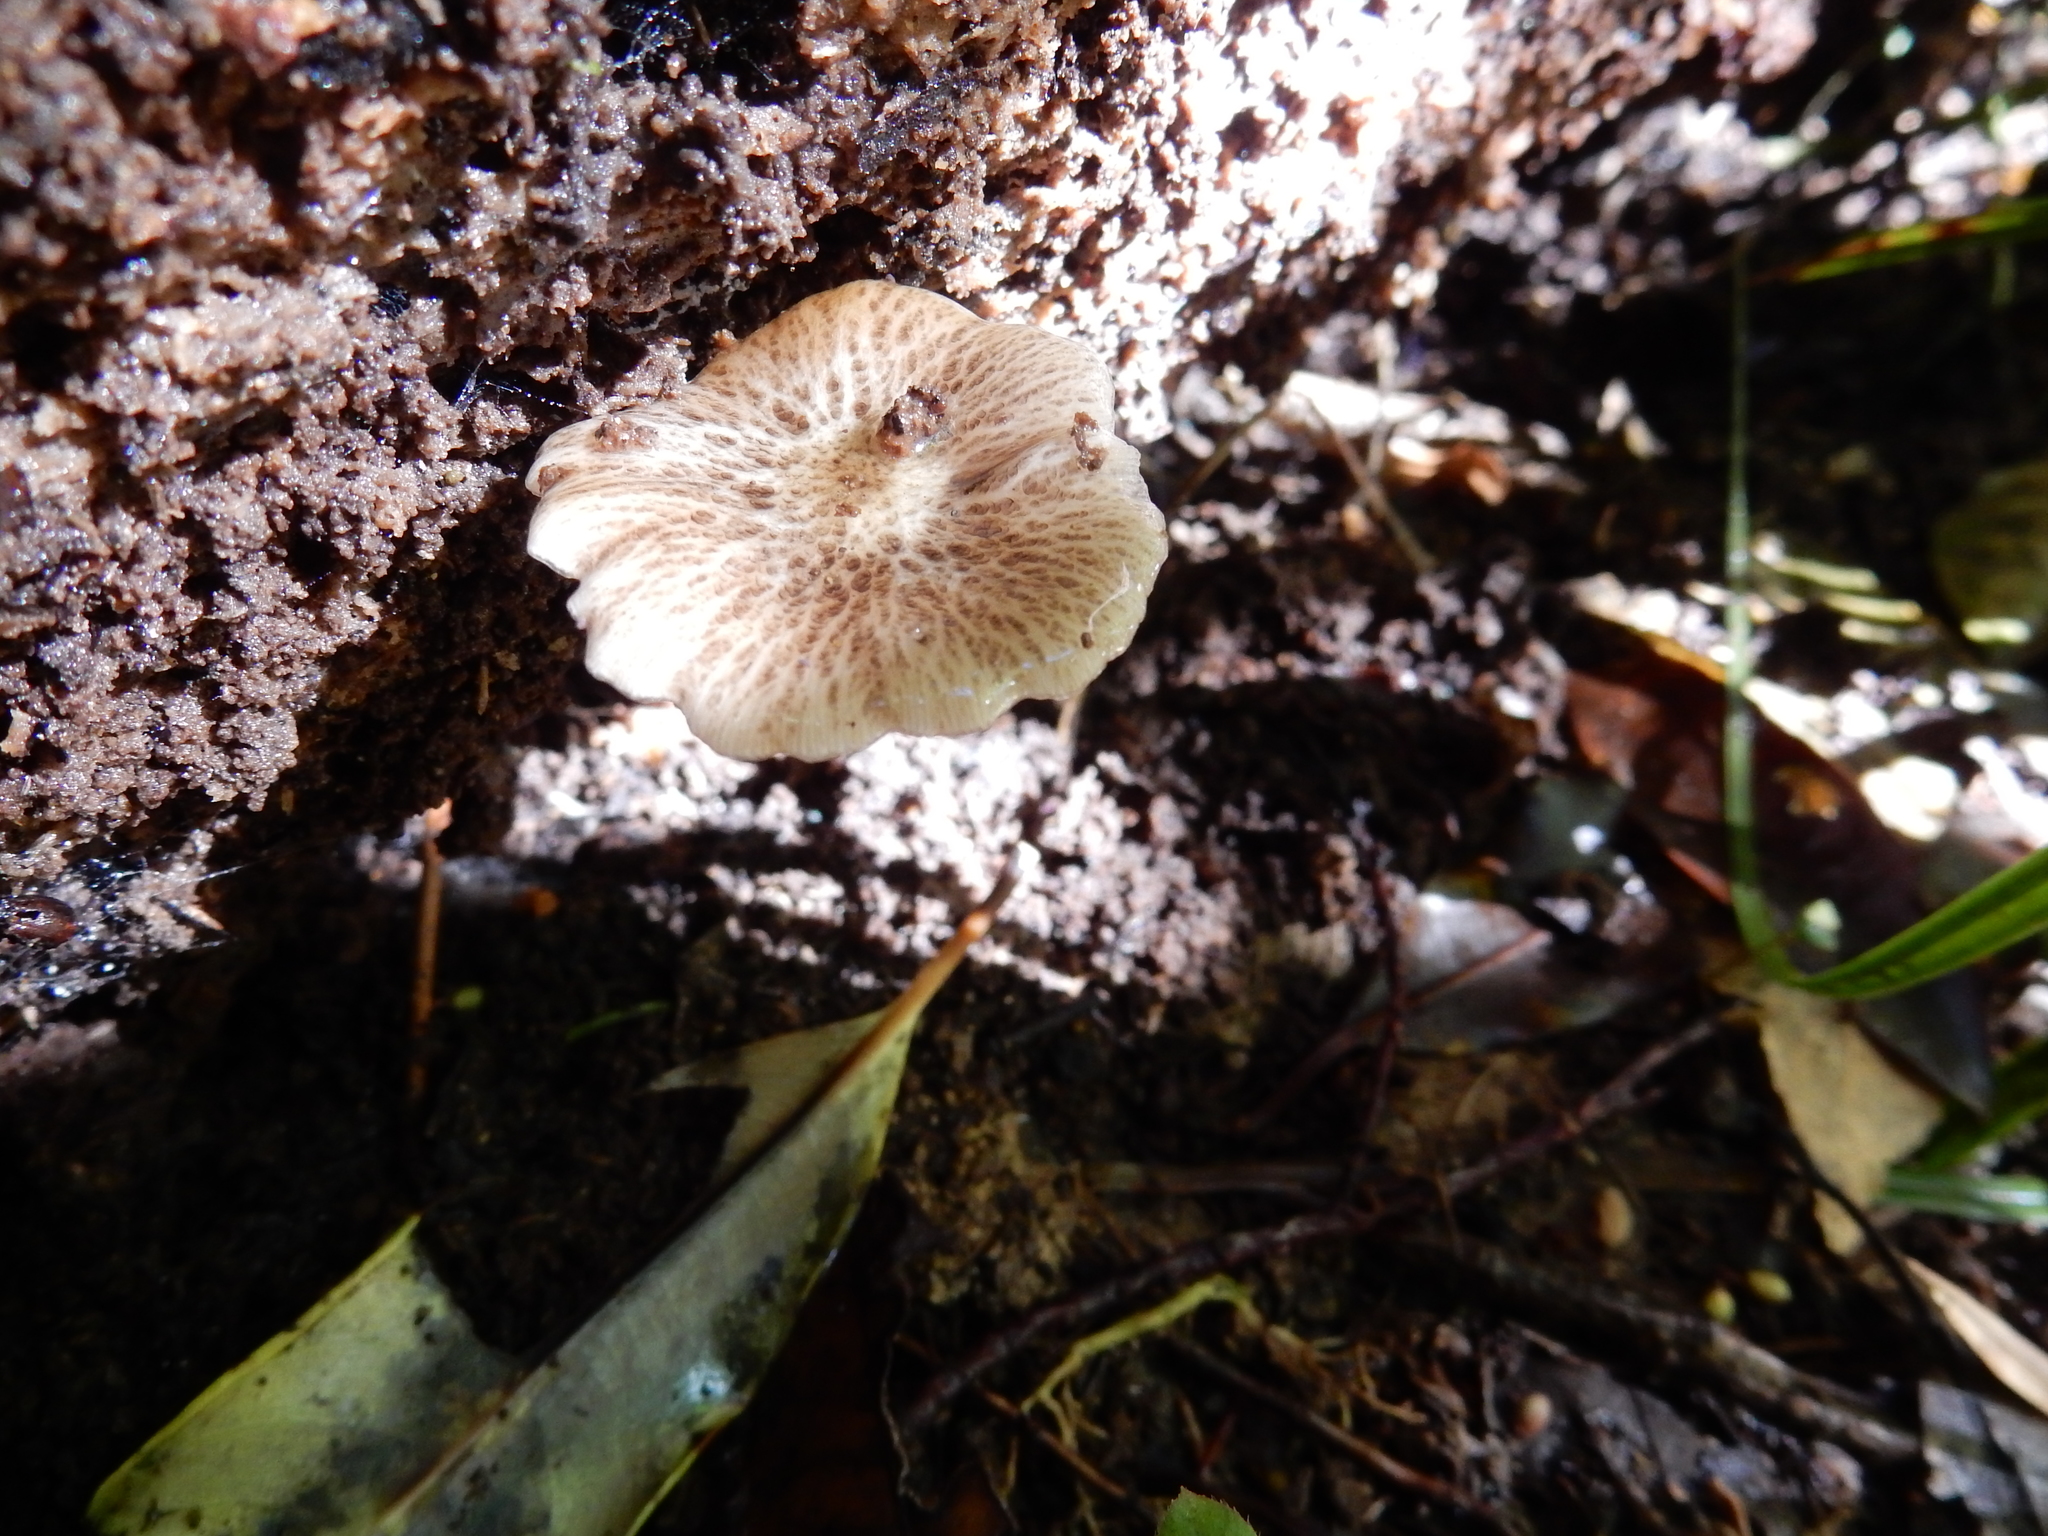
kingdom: Fungi
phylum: Basidiomycota
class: Agaricomycetes
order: Agaricales
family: Bolbitiaceae
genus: Bolbitius
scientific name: Bolbitius muscicola
